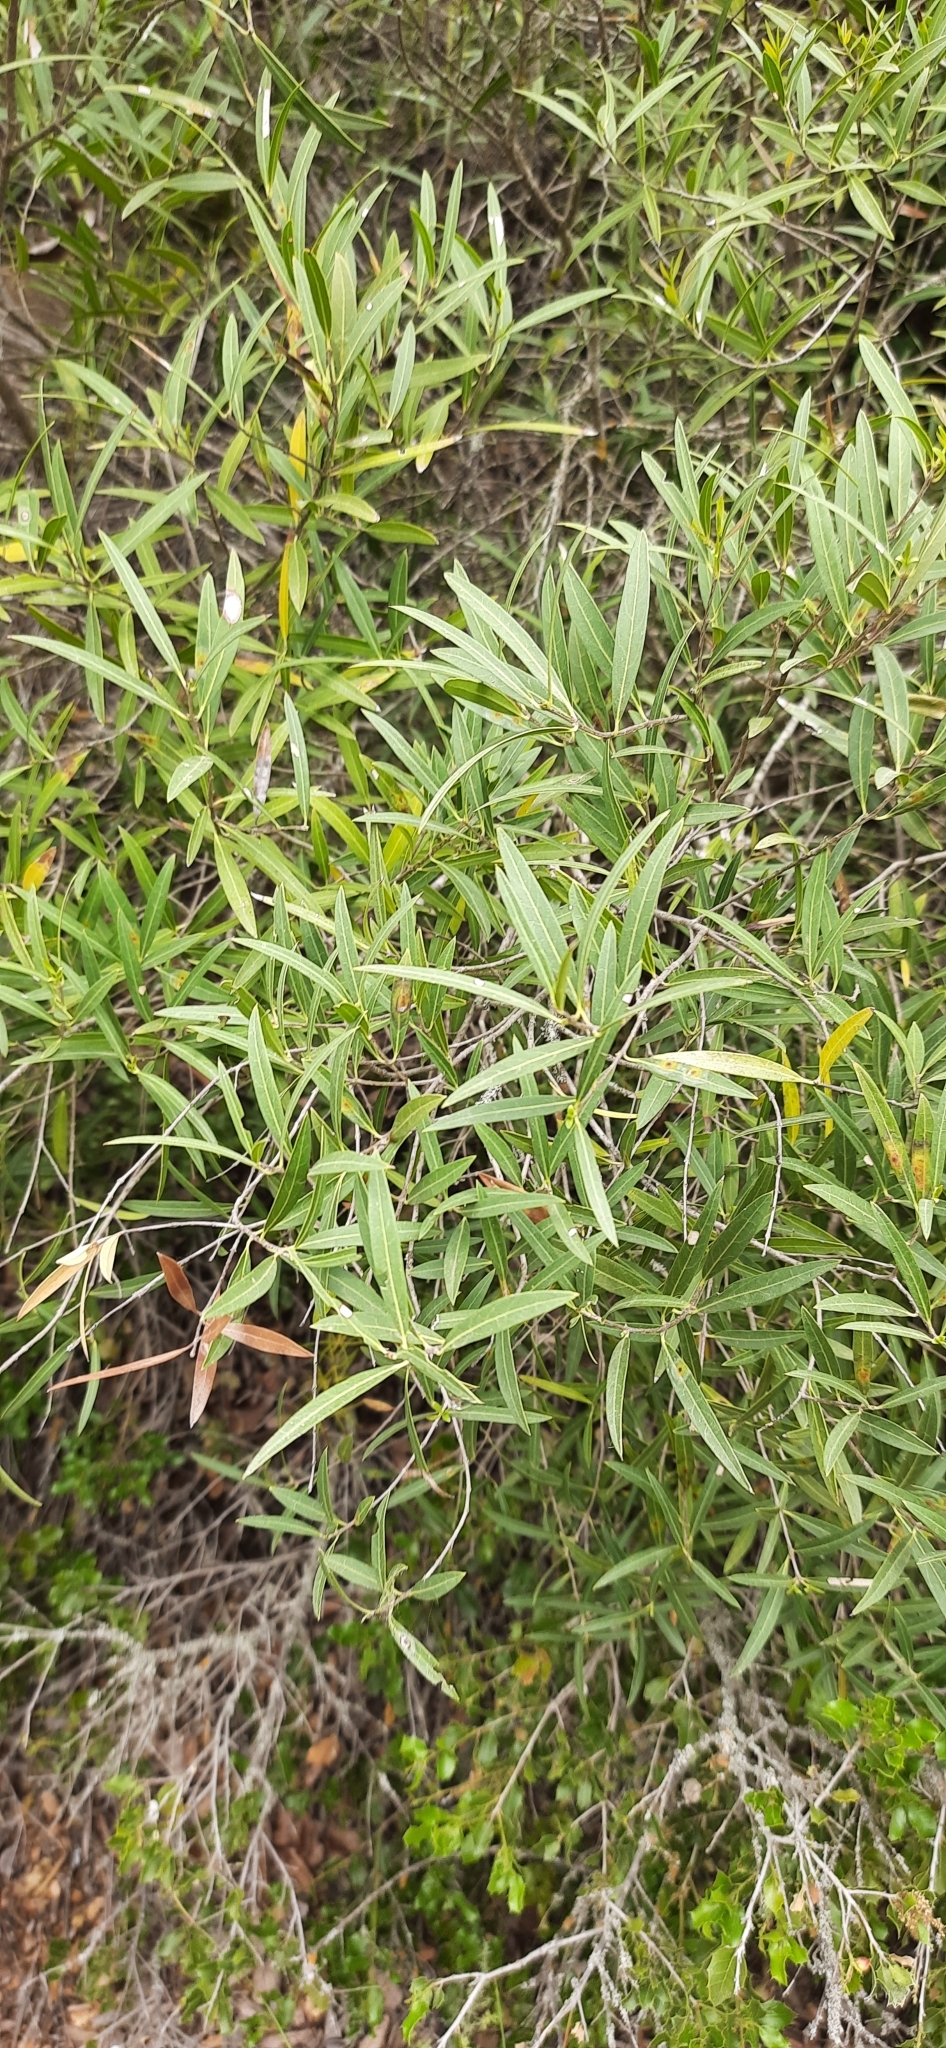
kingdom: Plantae
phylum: Tracheophyta
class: Magnoliopsida
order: Lamiales
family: Oleaceae
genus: Phillyrea
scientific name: Phillyrea angustifolia
